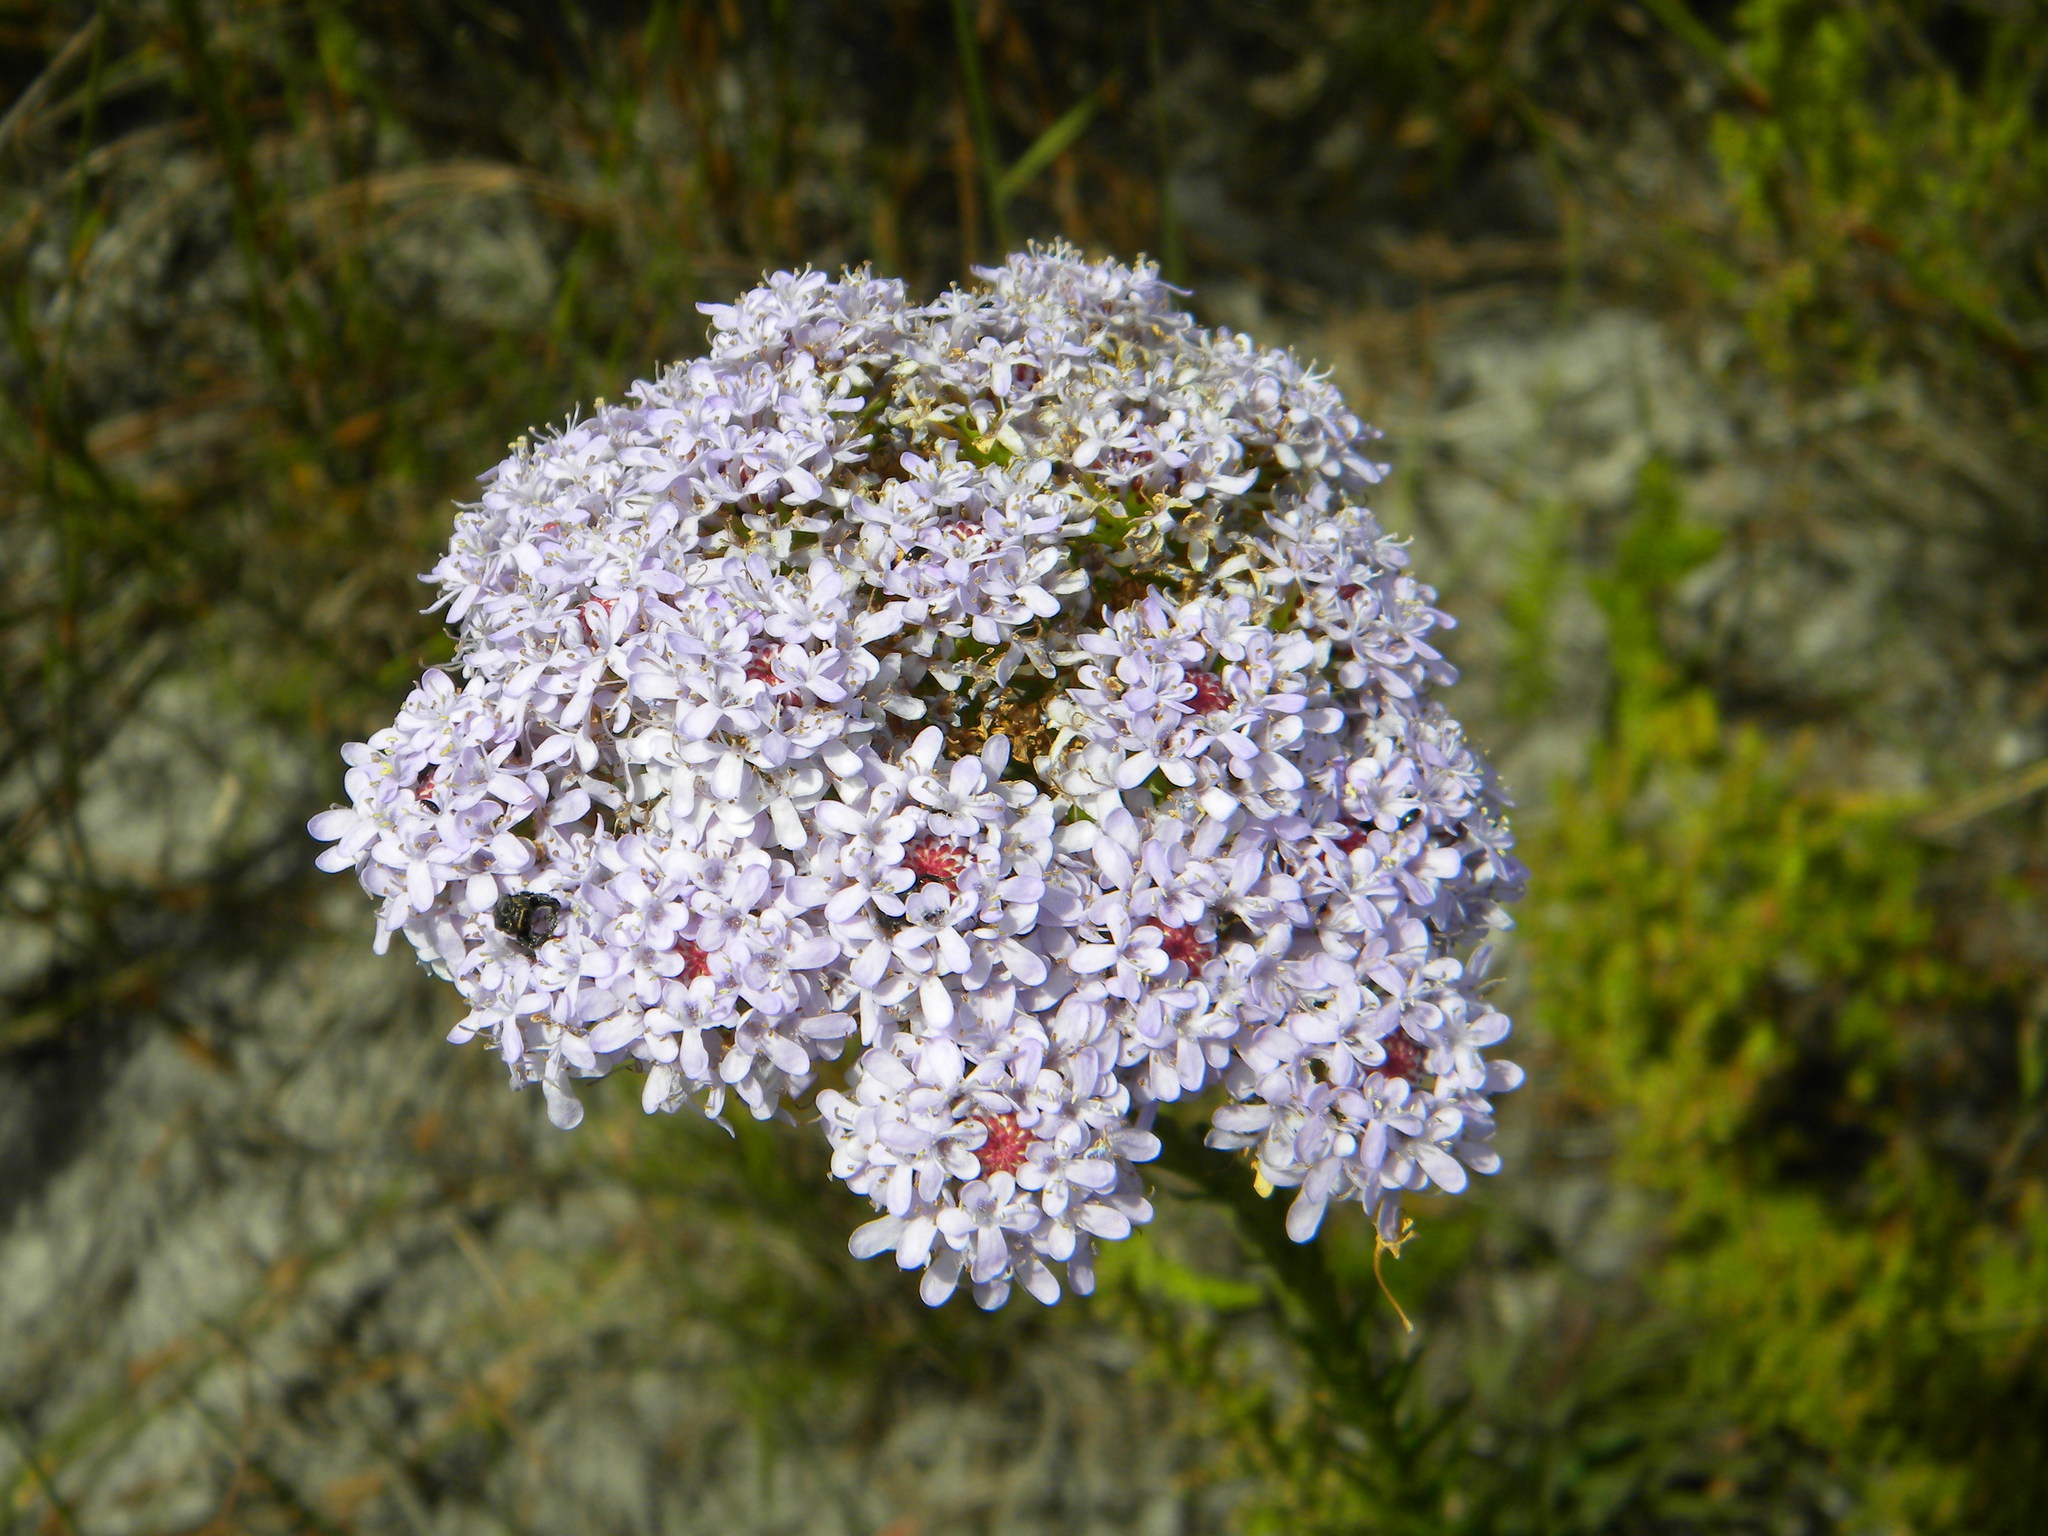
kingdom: Plantae
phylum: Tracheophyta
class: Magnoliopsida
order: Lamiales
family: Scrophulariaceae
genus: Pseudoselago
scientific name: Pseudoselago spuria
